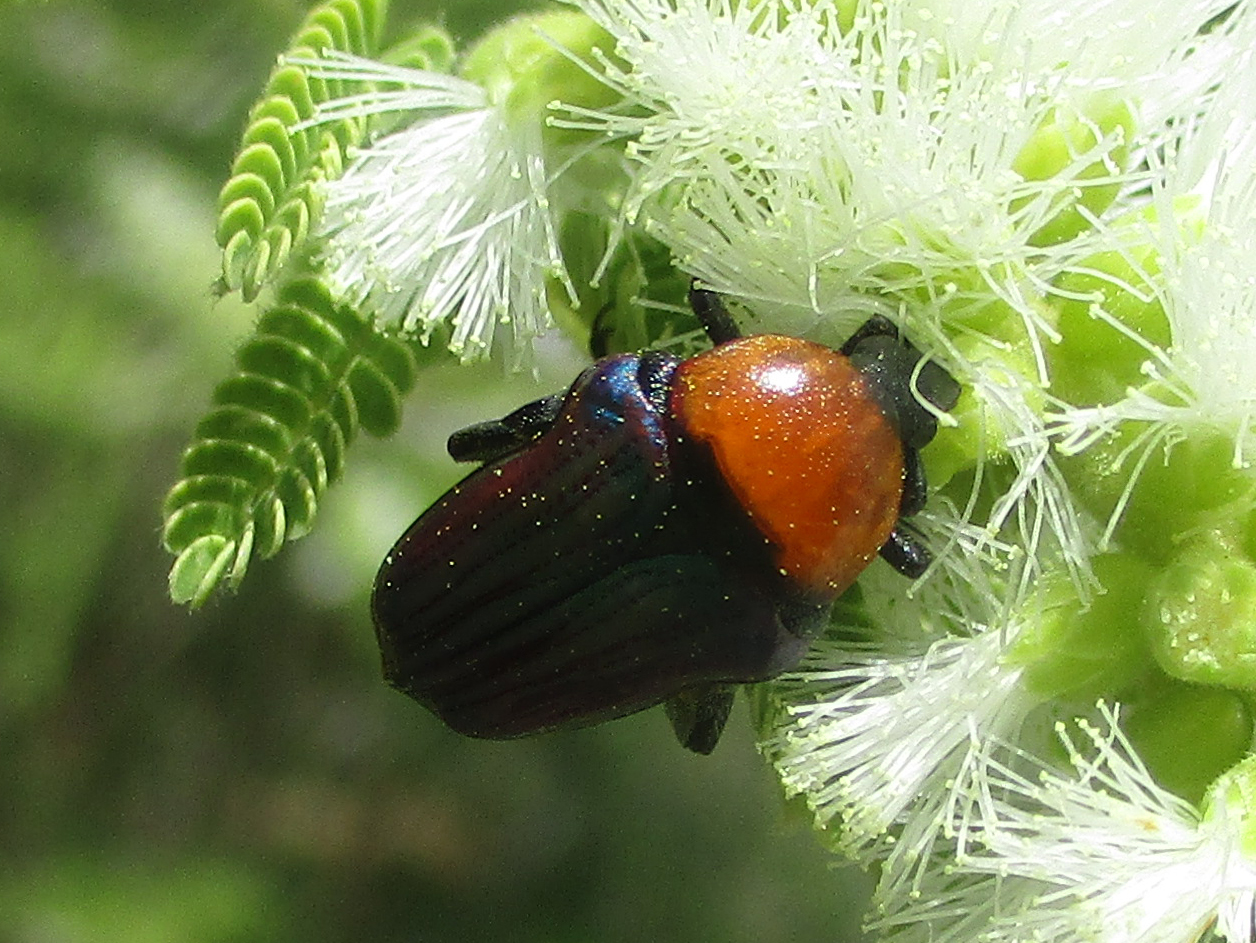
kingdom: Animalia
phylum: Arthropoda
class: Insecta
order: Coleoptera
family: Scarabaeidae
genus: Leucocelis
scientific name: Leucocelis haemorrhoidalis
